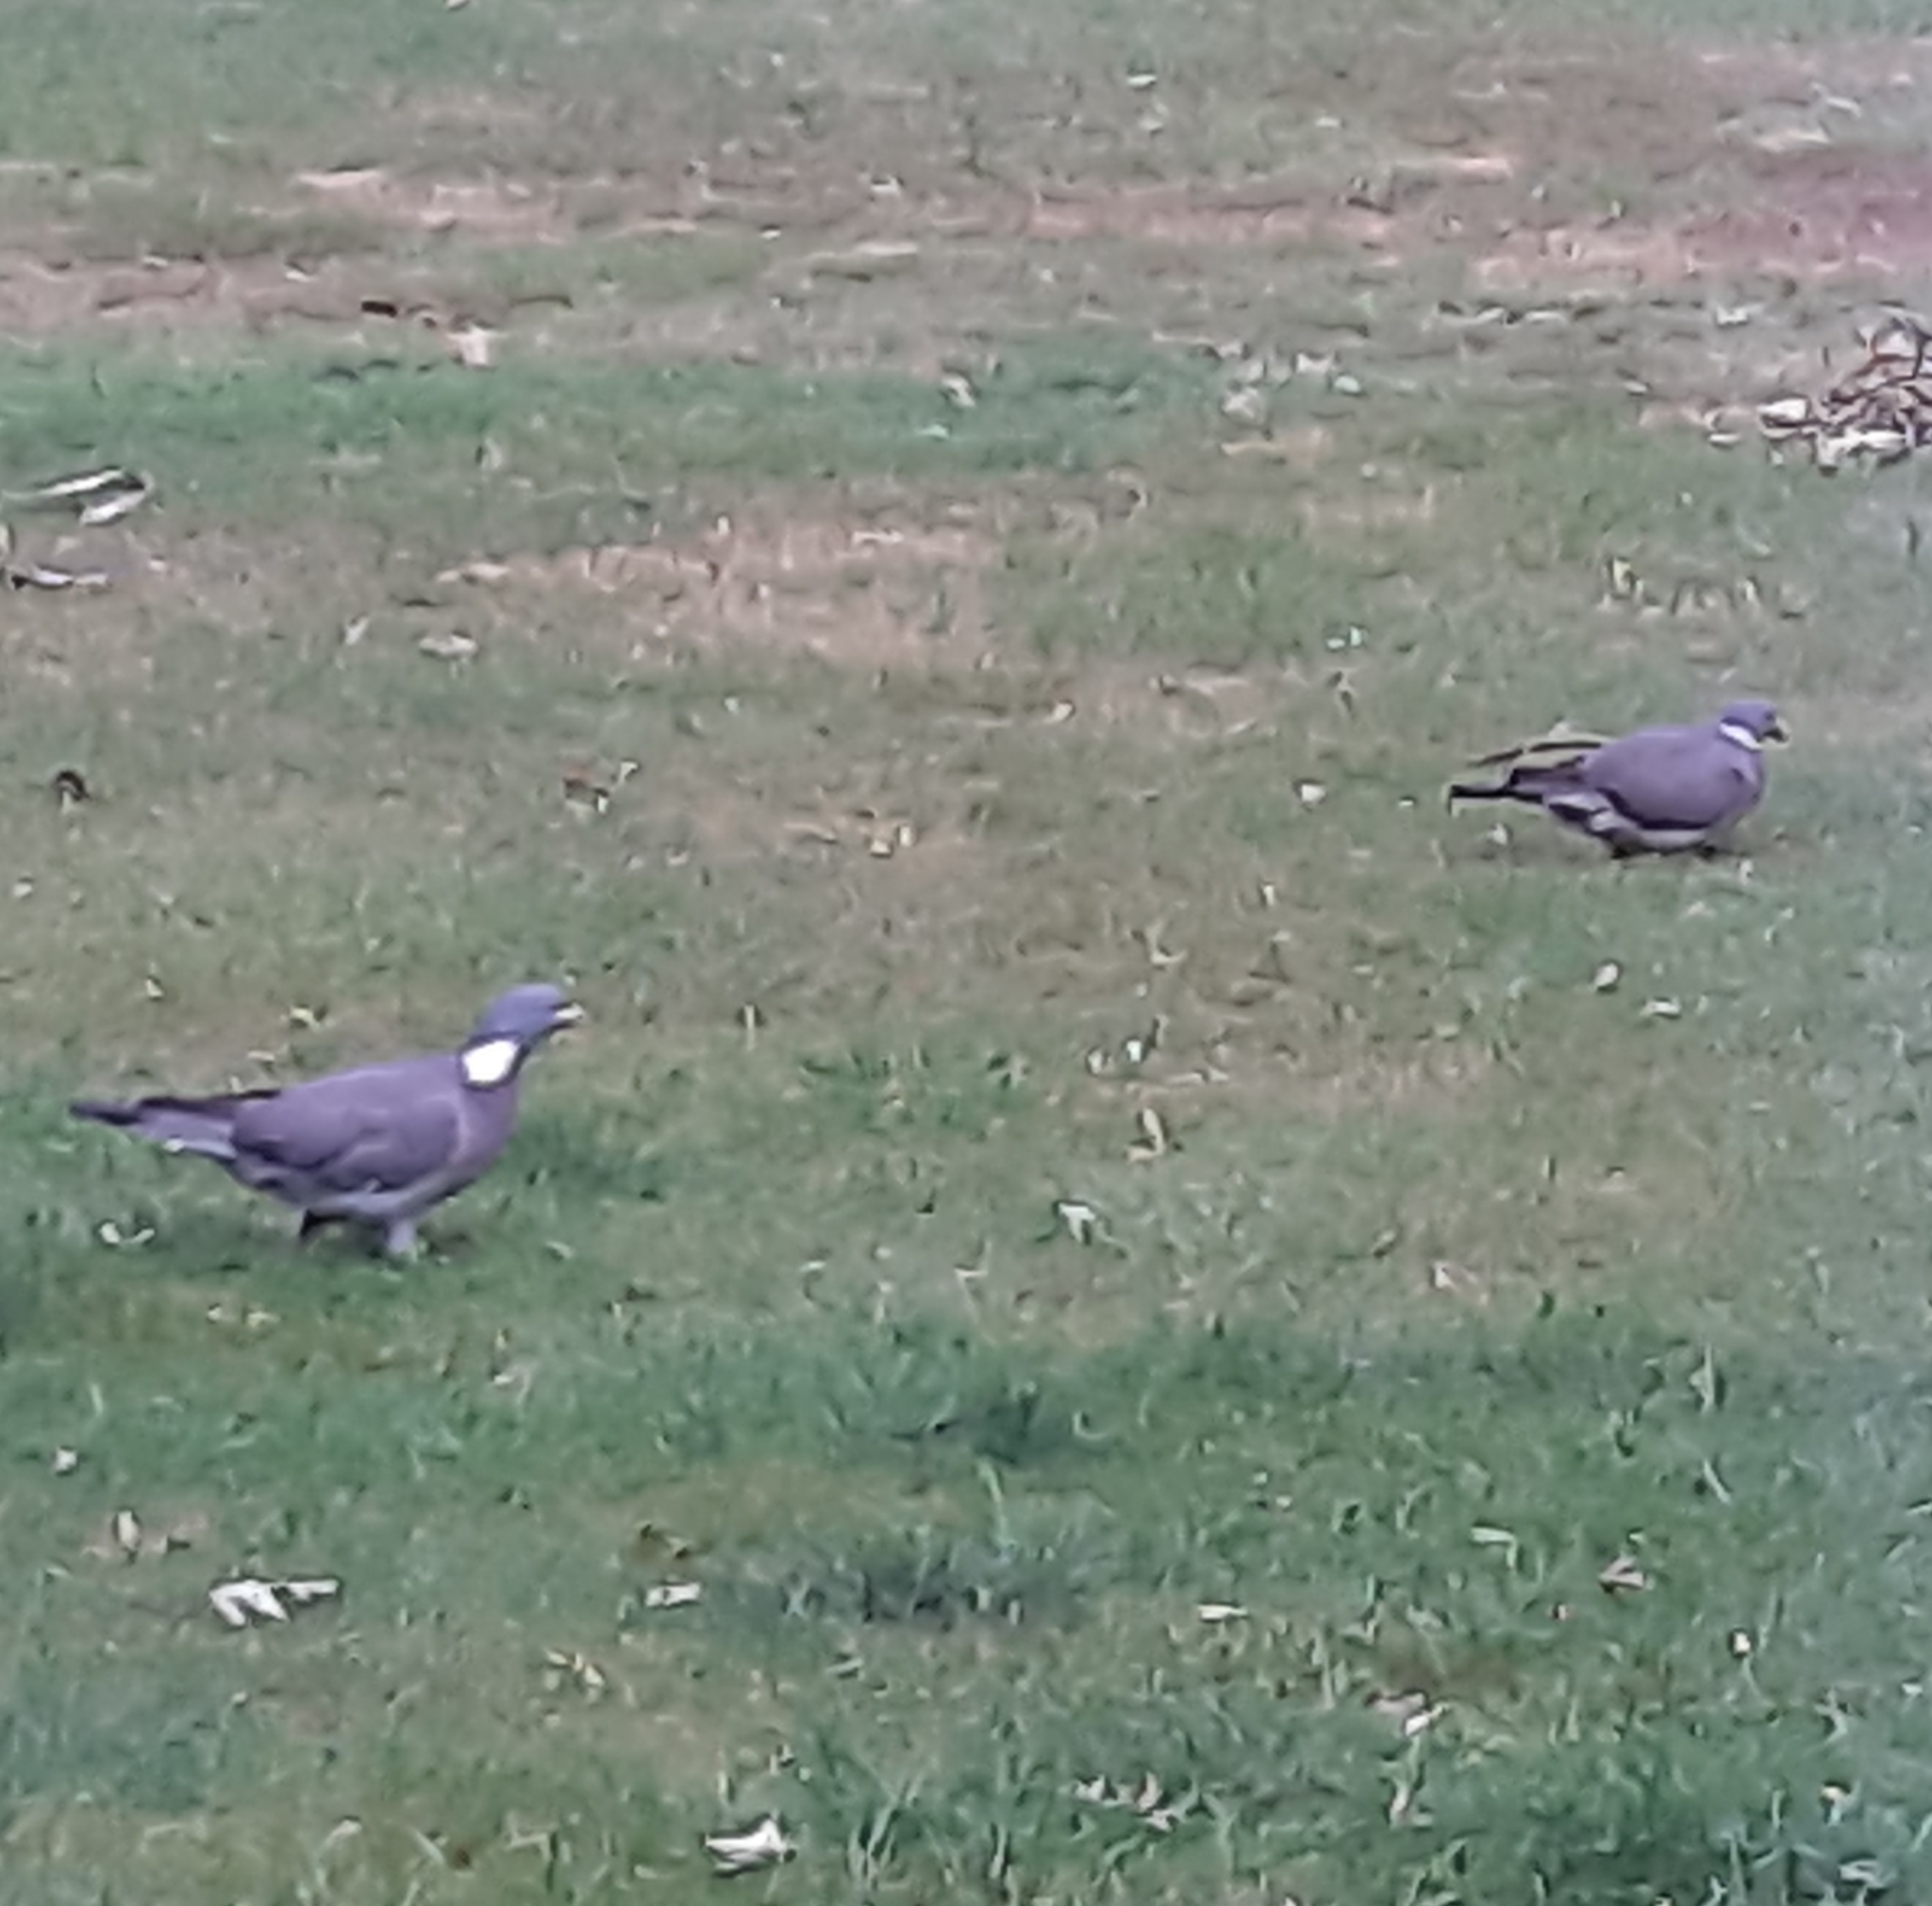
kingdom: Animalia
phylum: Chordata
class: Aves
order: Columbiformes
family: Columbidae
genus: Columba
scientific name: Columba palumbus
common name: Common wood pigeon
